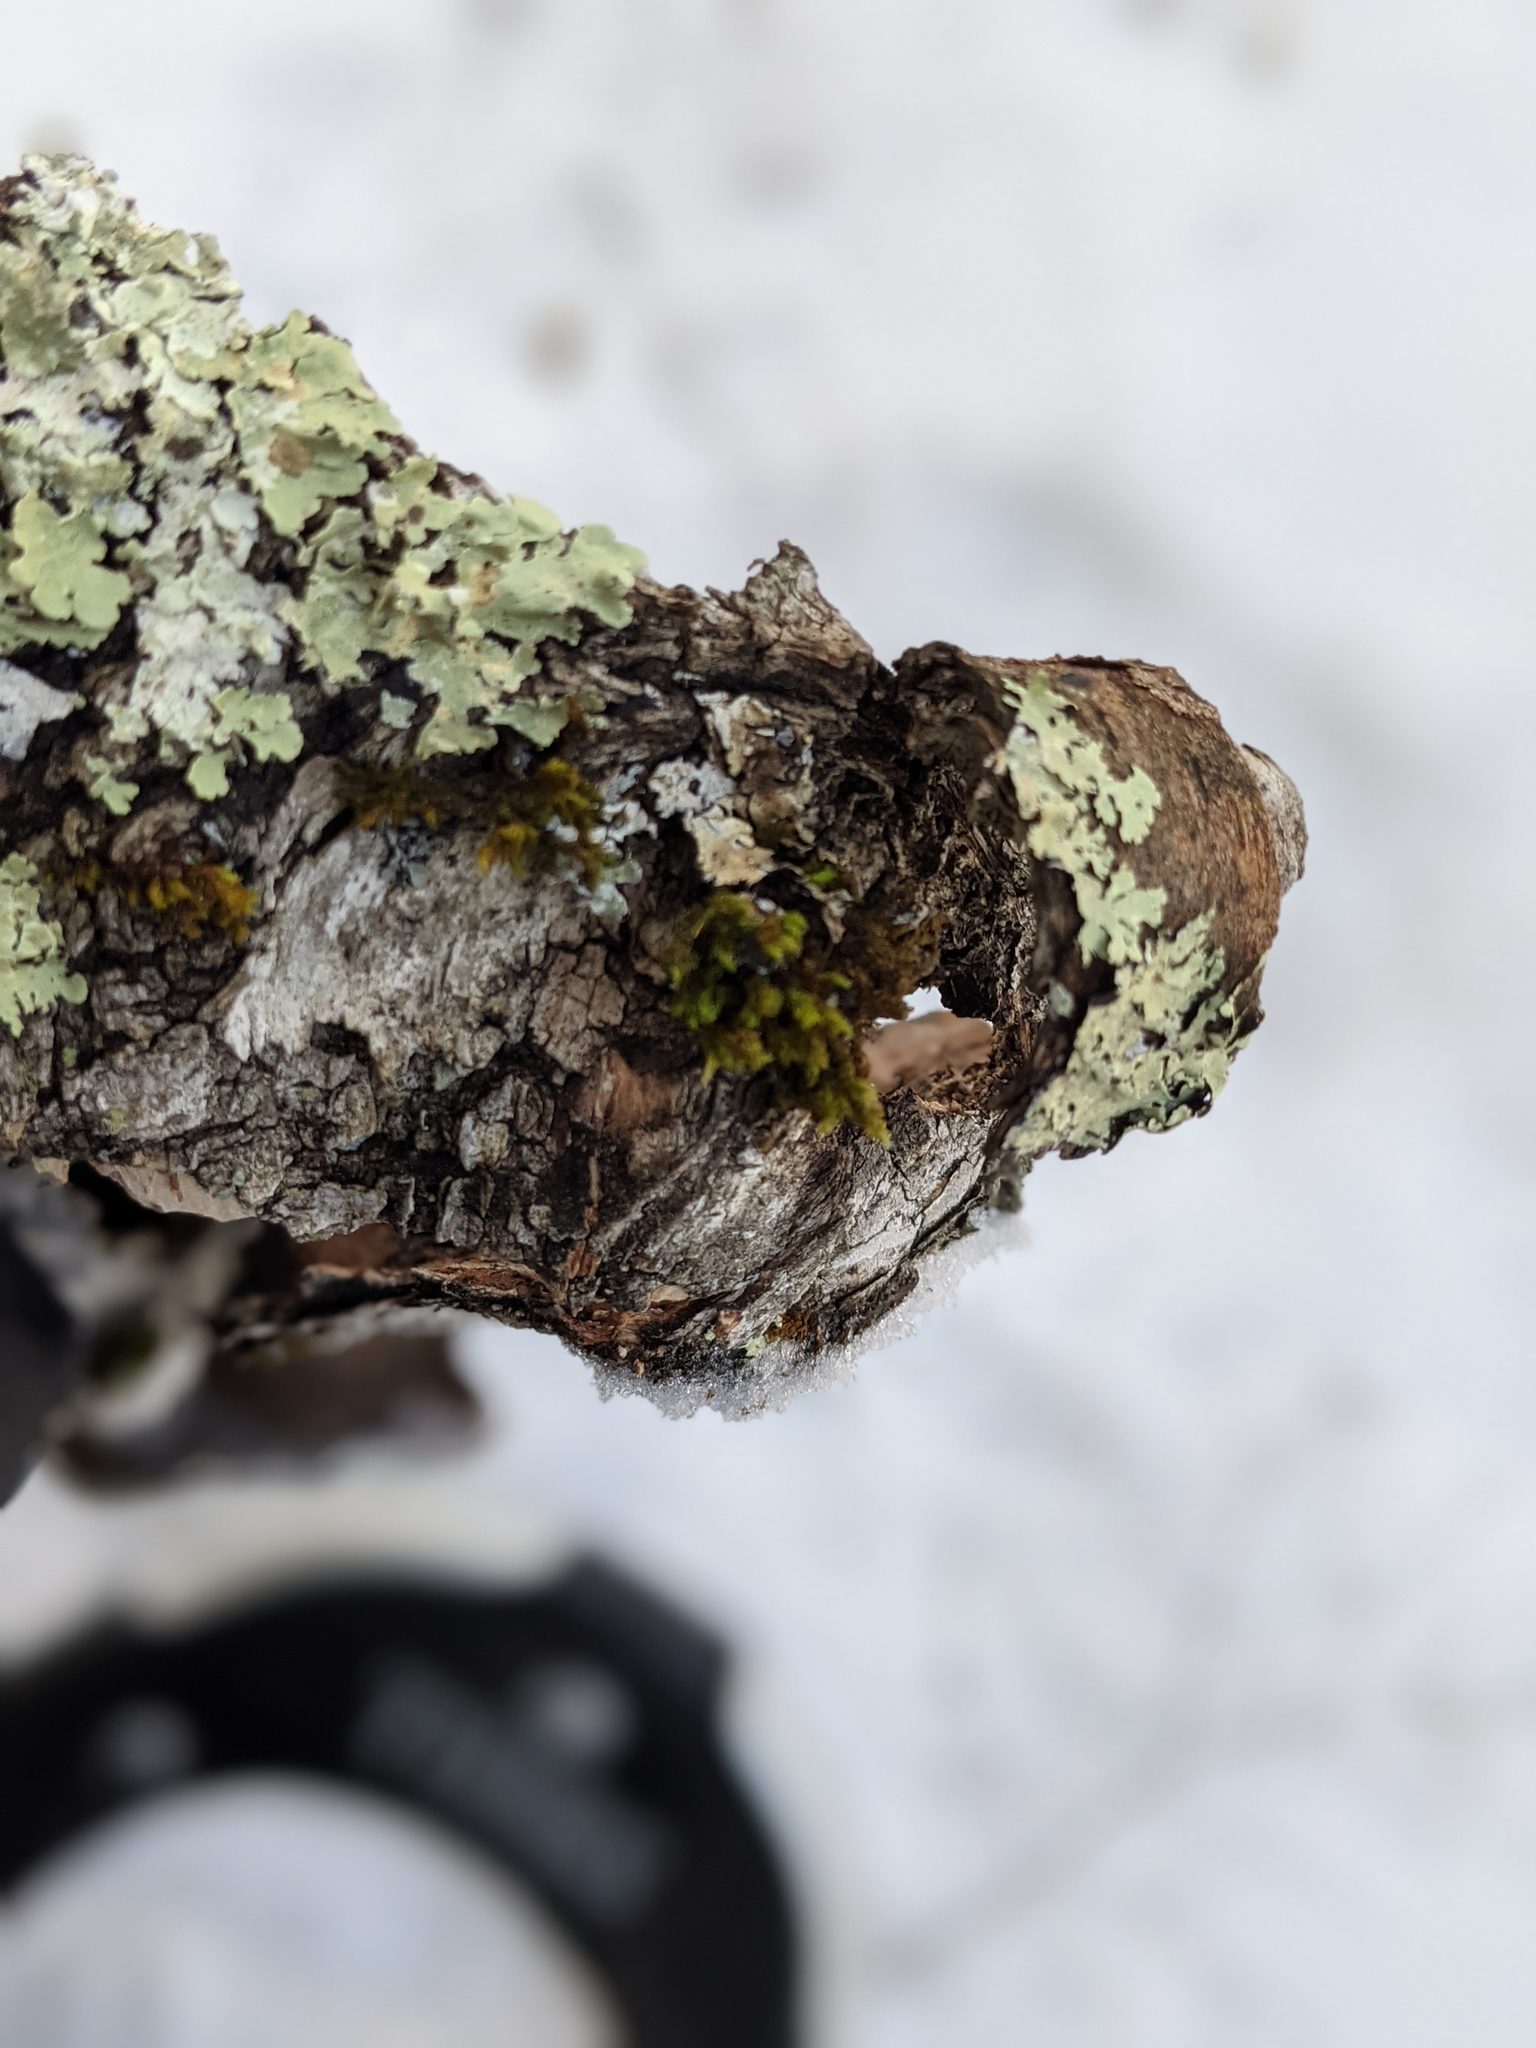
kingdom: Plantae
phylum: Bryophyta
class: Bryopsida
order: Orthotrichales
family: Orthotrichaceae
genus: Ulota
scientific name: Ulota crispa
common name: Crisped pincushion moss
